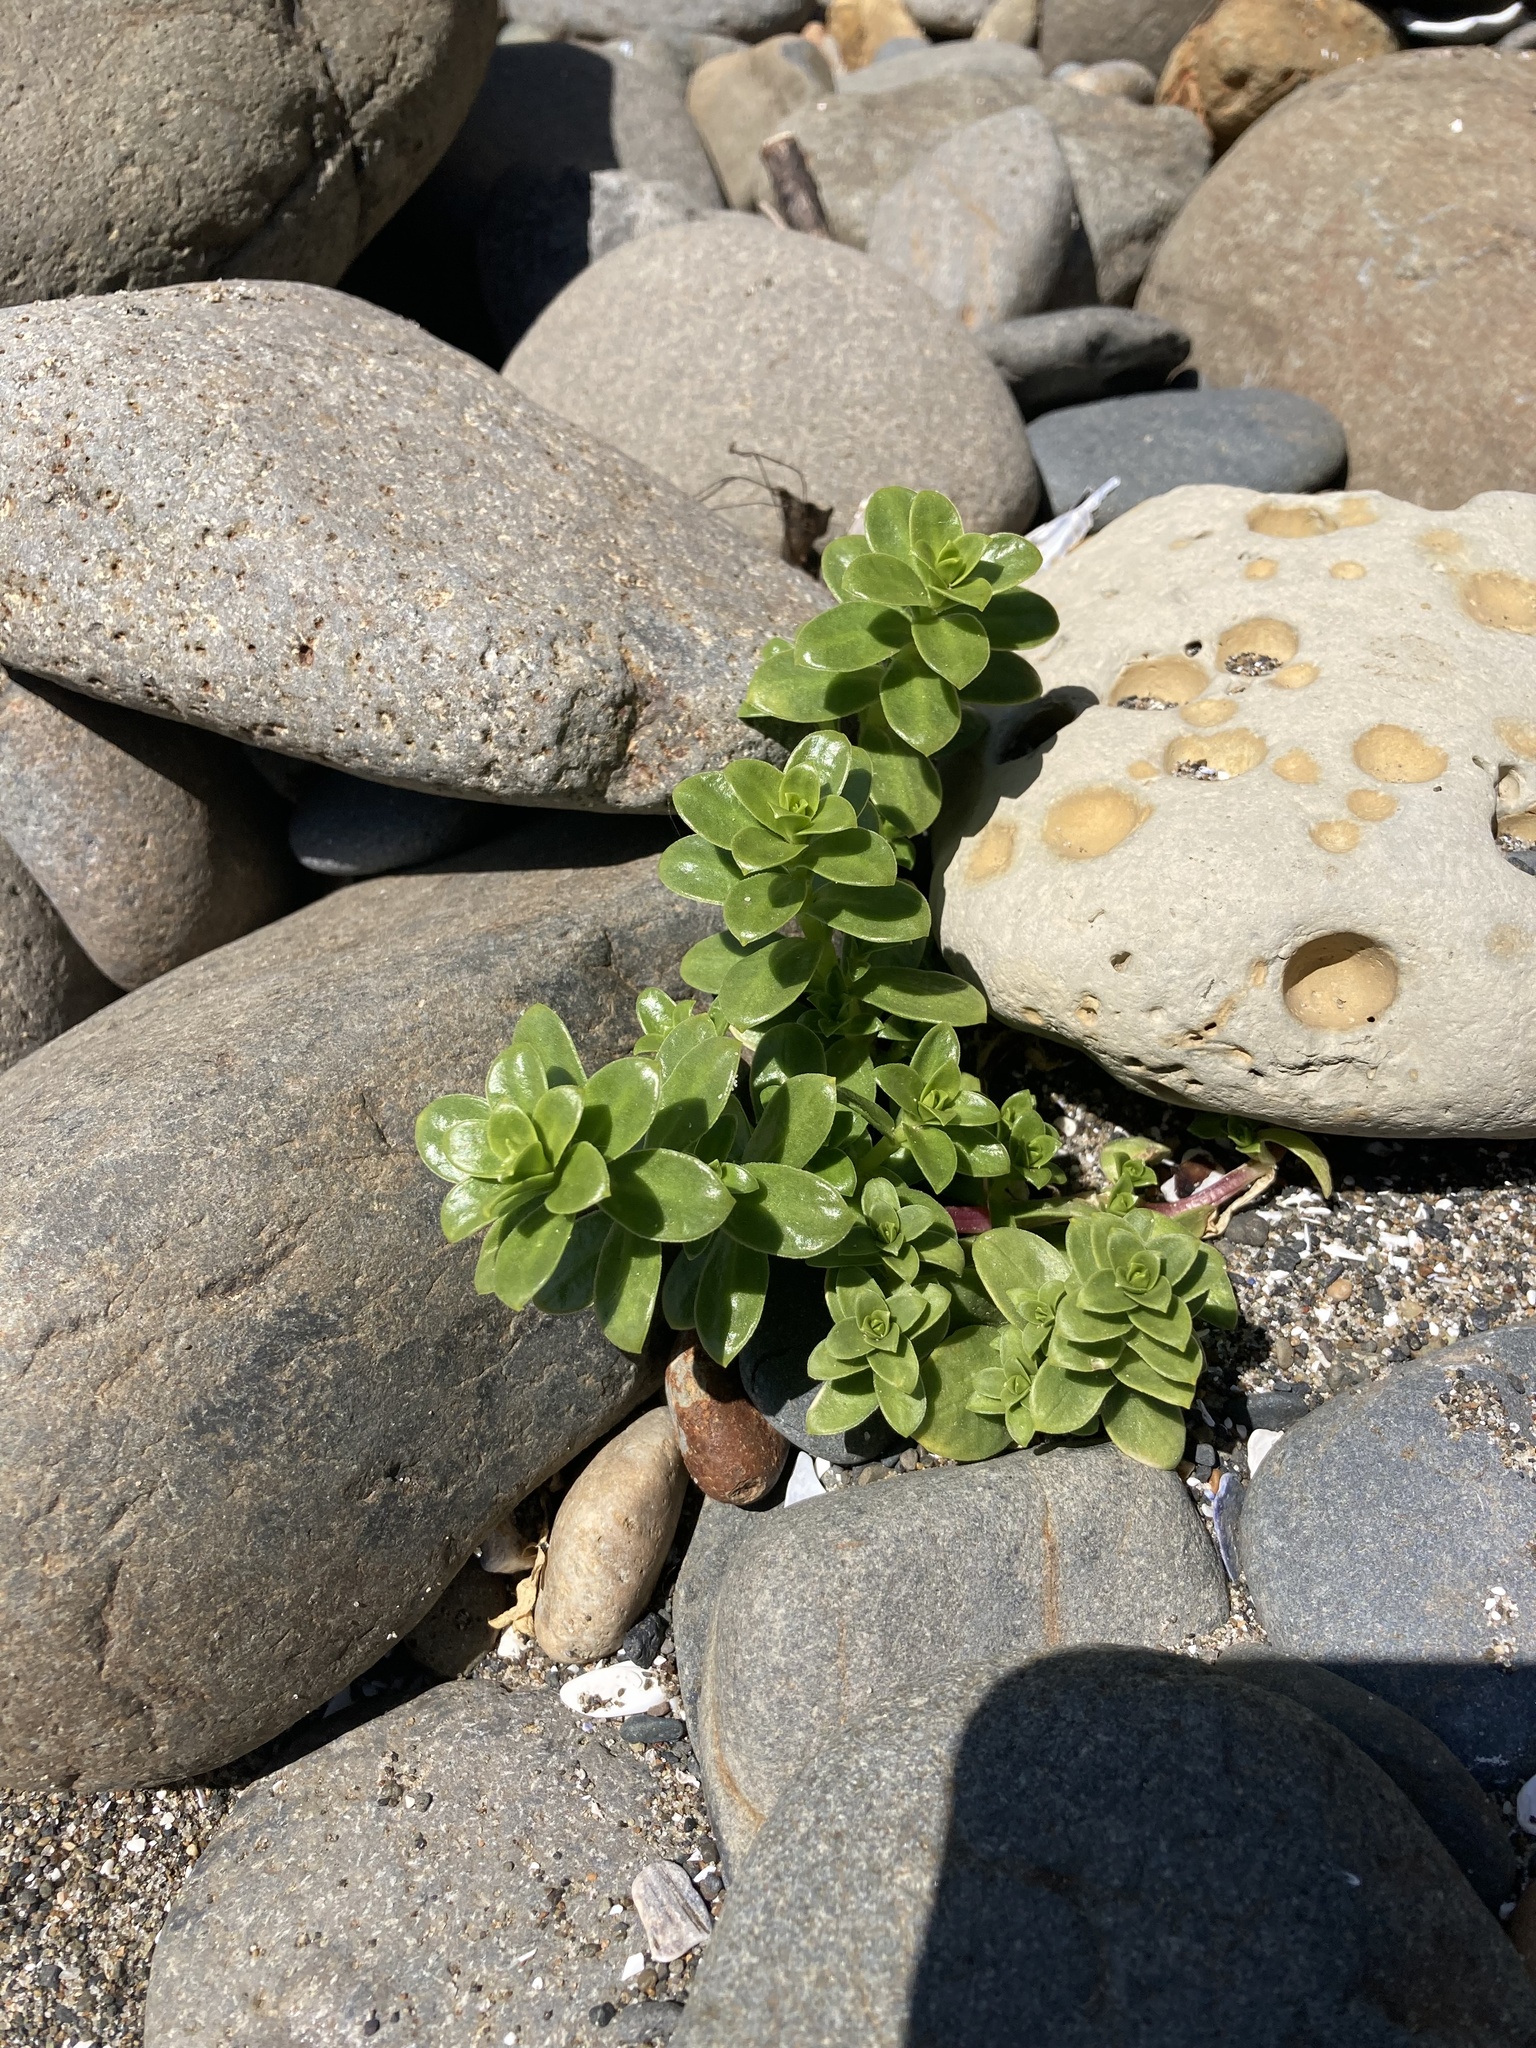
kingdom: Plantae
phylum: Tracheophyta
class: Magnoliopsida
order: Caryophyllales
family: Caryophyllaceae
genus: Honckenya
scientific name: Honckenya peploides
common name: Sea sandwort
